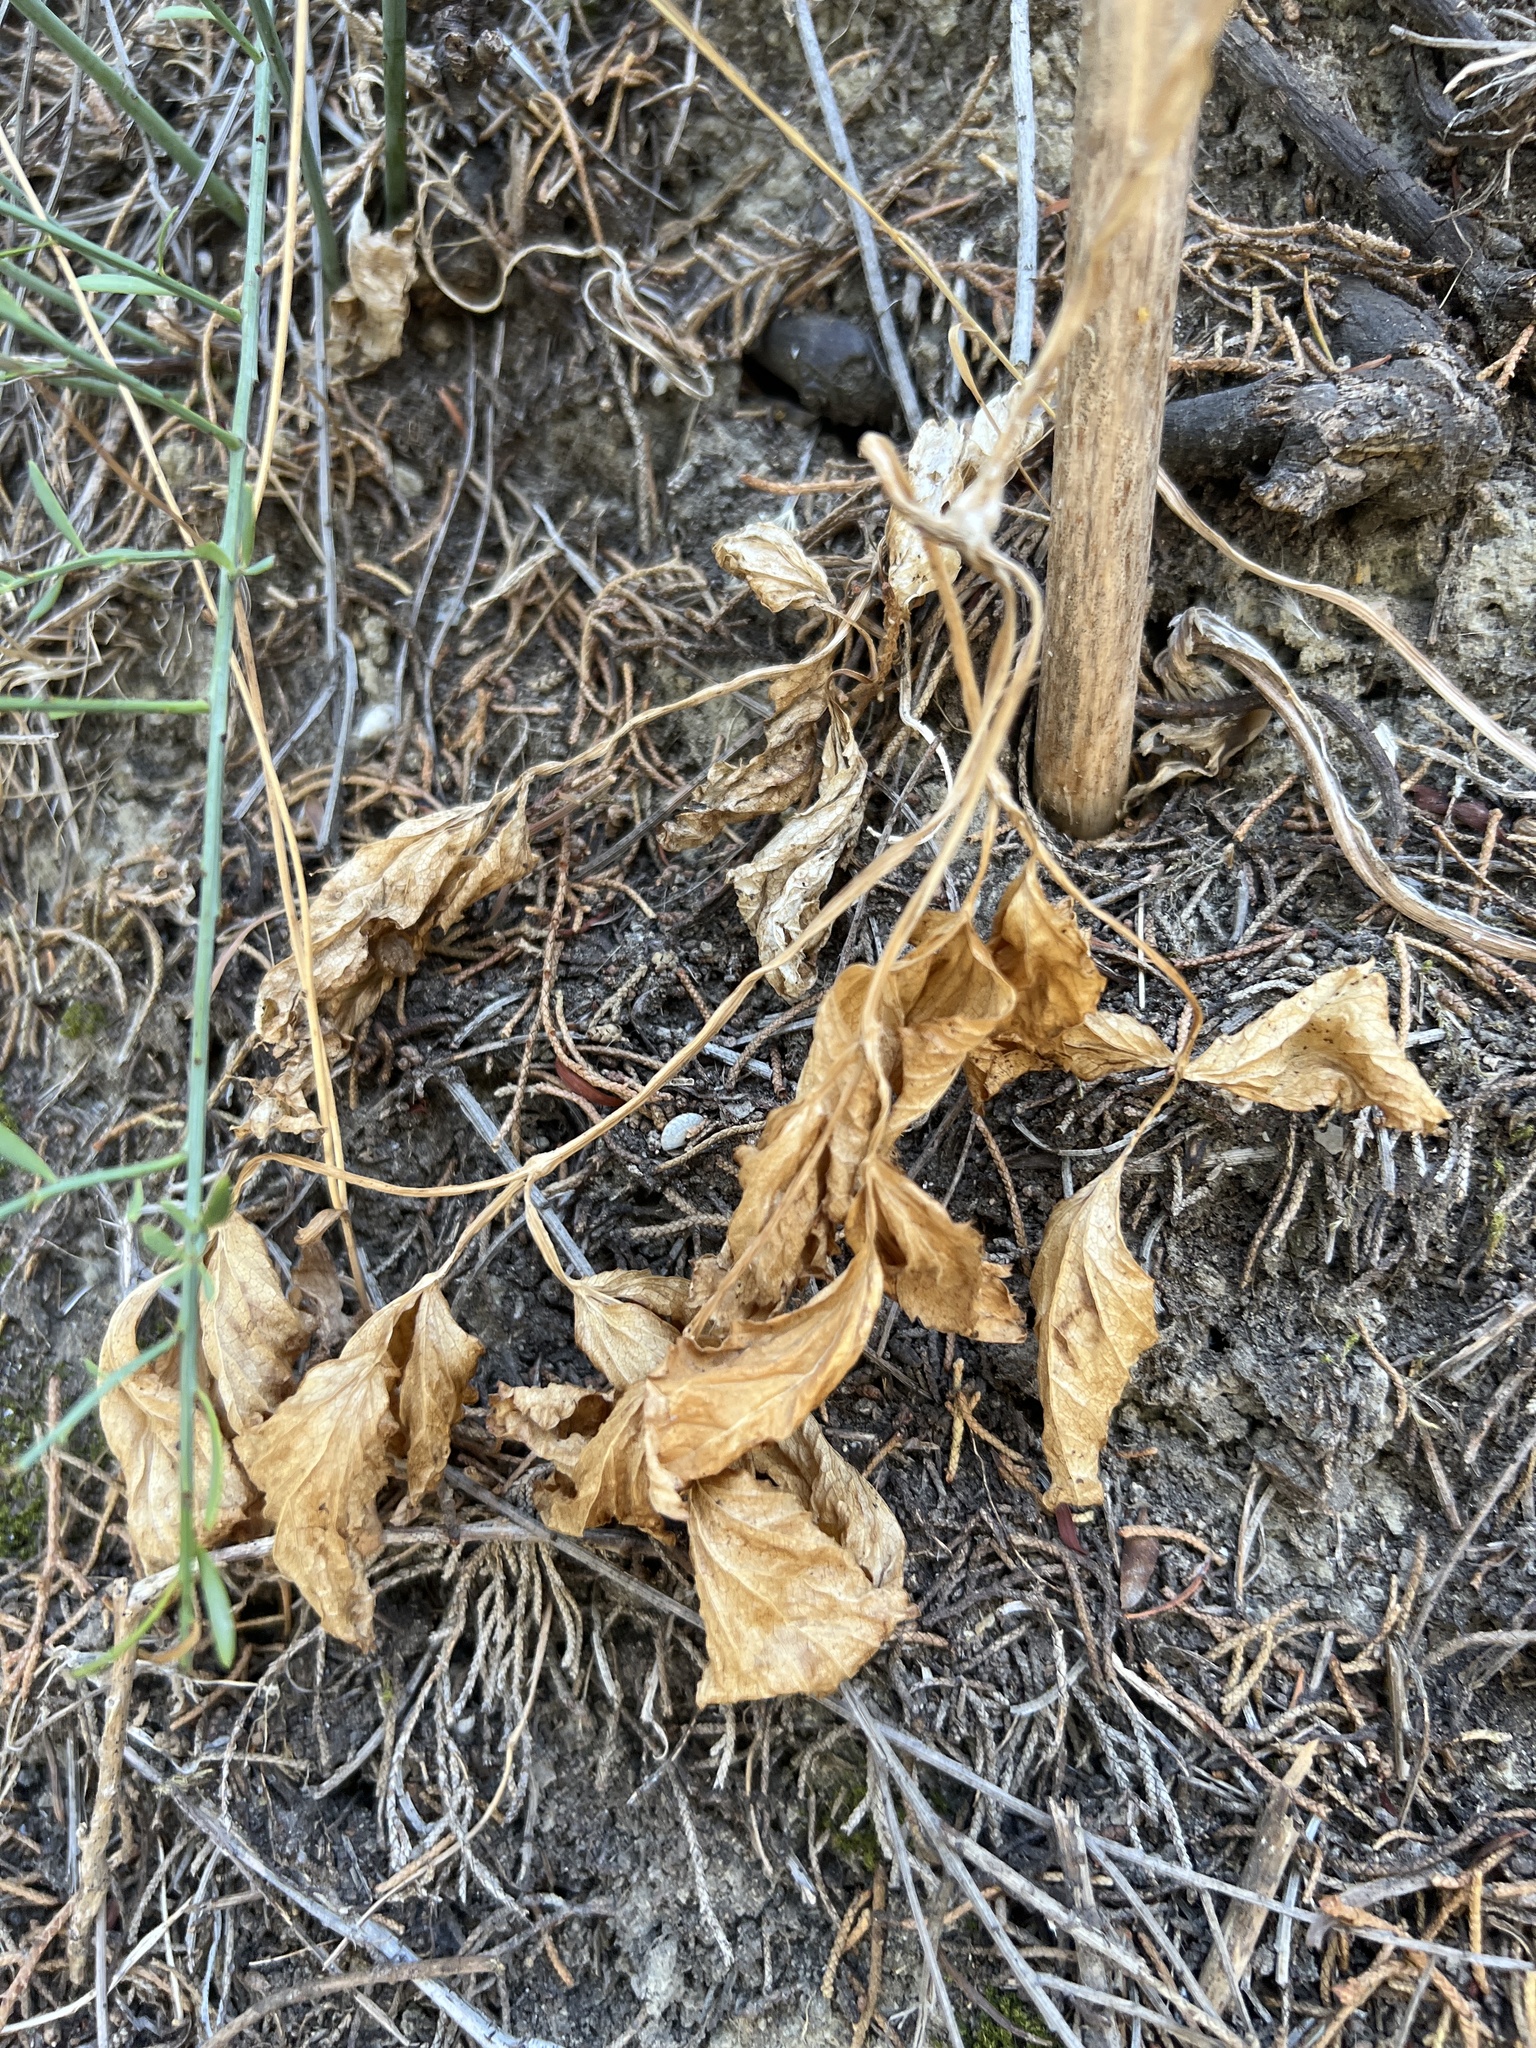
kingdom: Plantae
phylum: Tracheophyta
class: Magnoliopsida
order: Apiales
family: Apiaceae
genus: Smyrnium
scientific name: Smyrnium olusatrum
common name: Alexanders
